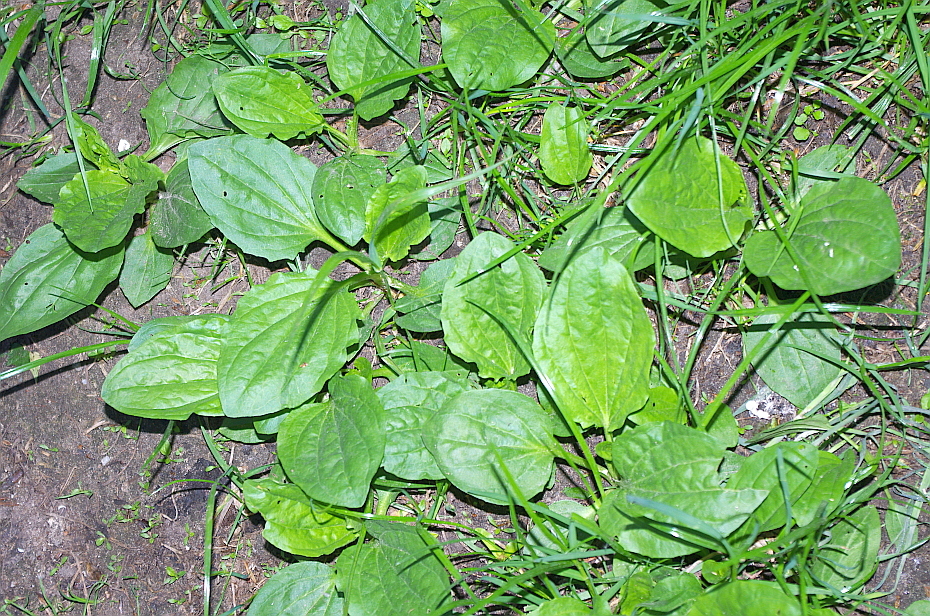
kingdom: Plantae
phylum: Tracheophyta
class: Magnoliopsida
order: Lamiales
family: Plantaginaceae
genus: Plantago
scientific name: Plantago major
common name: Common plantain
